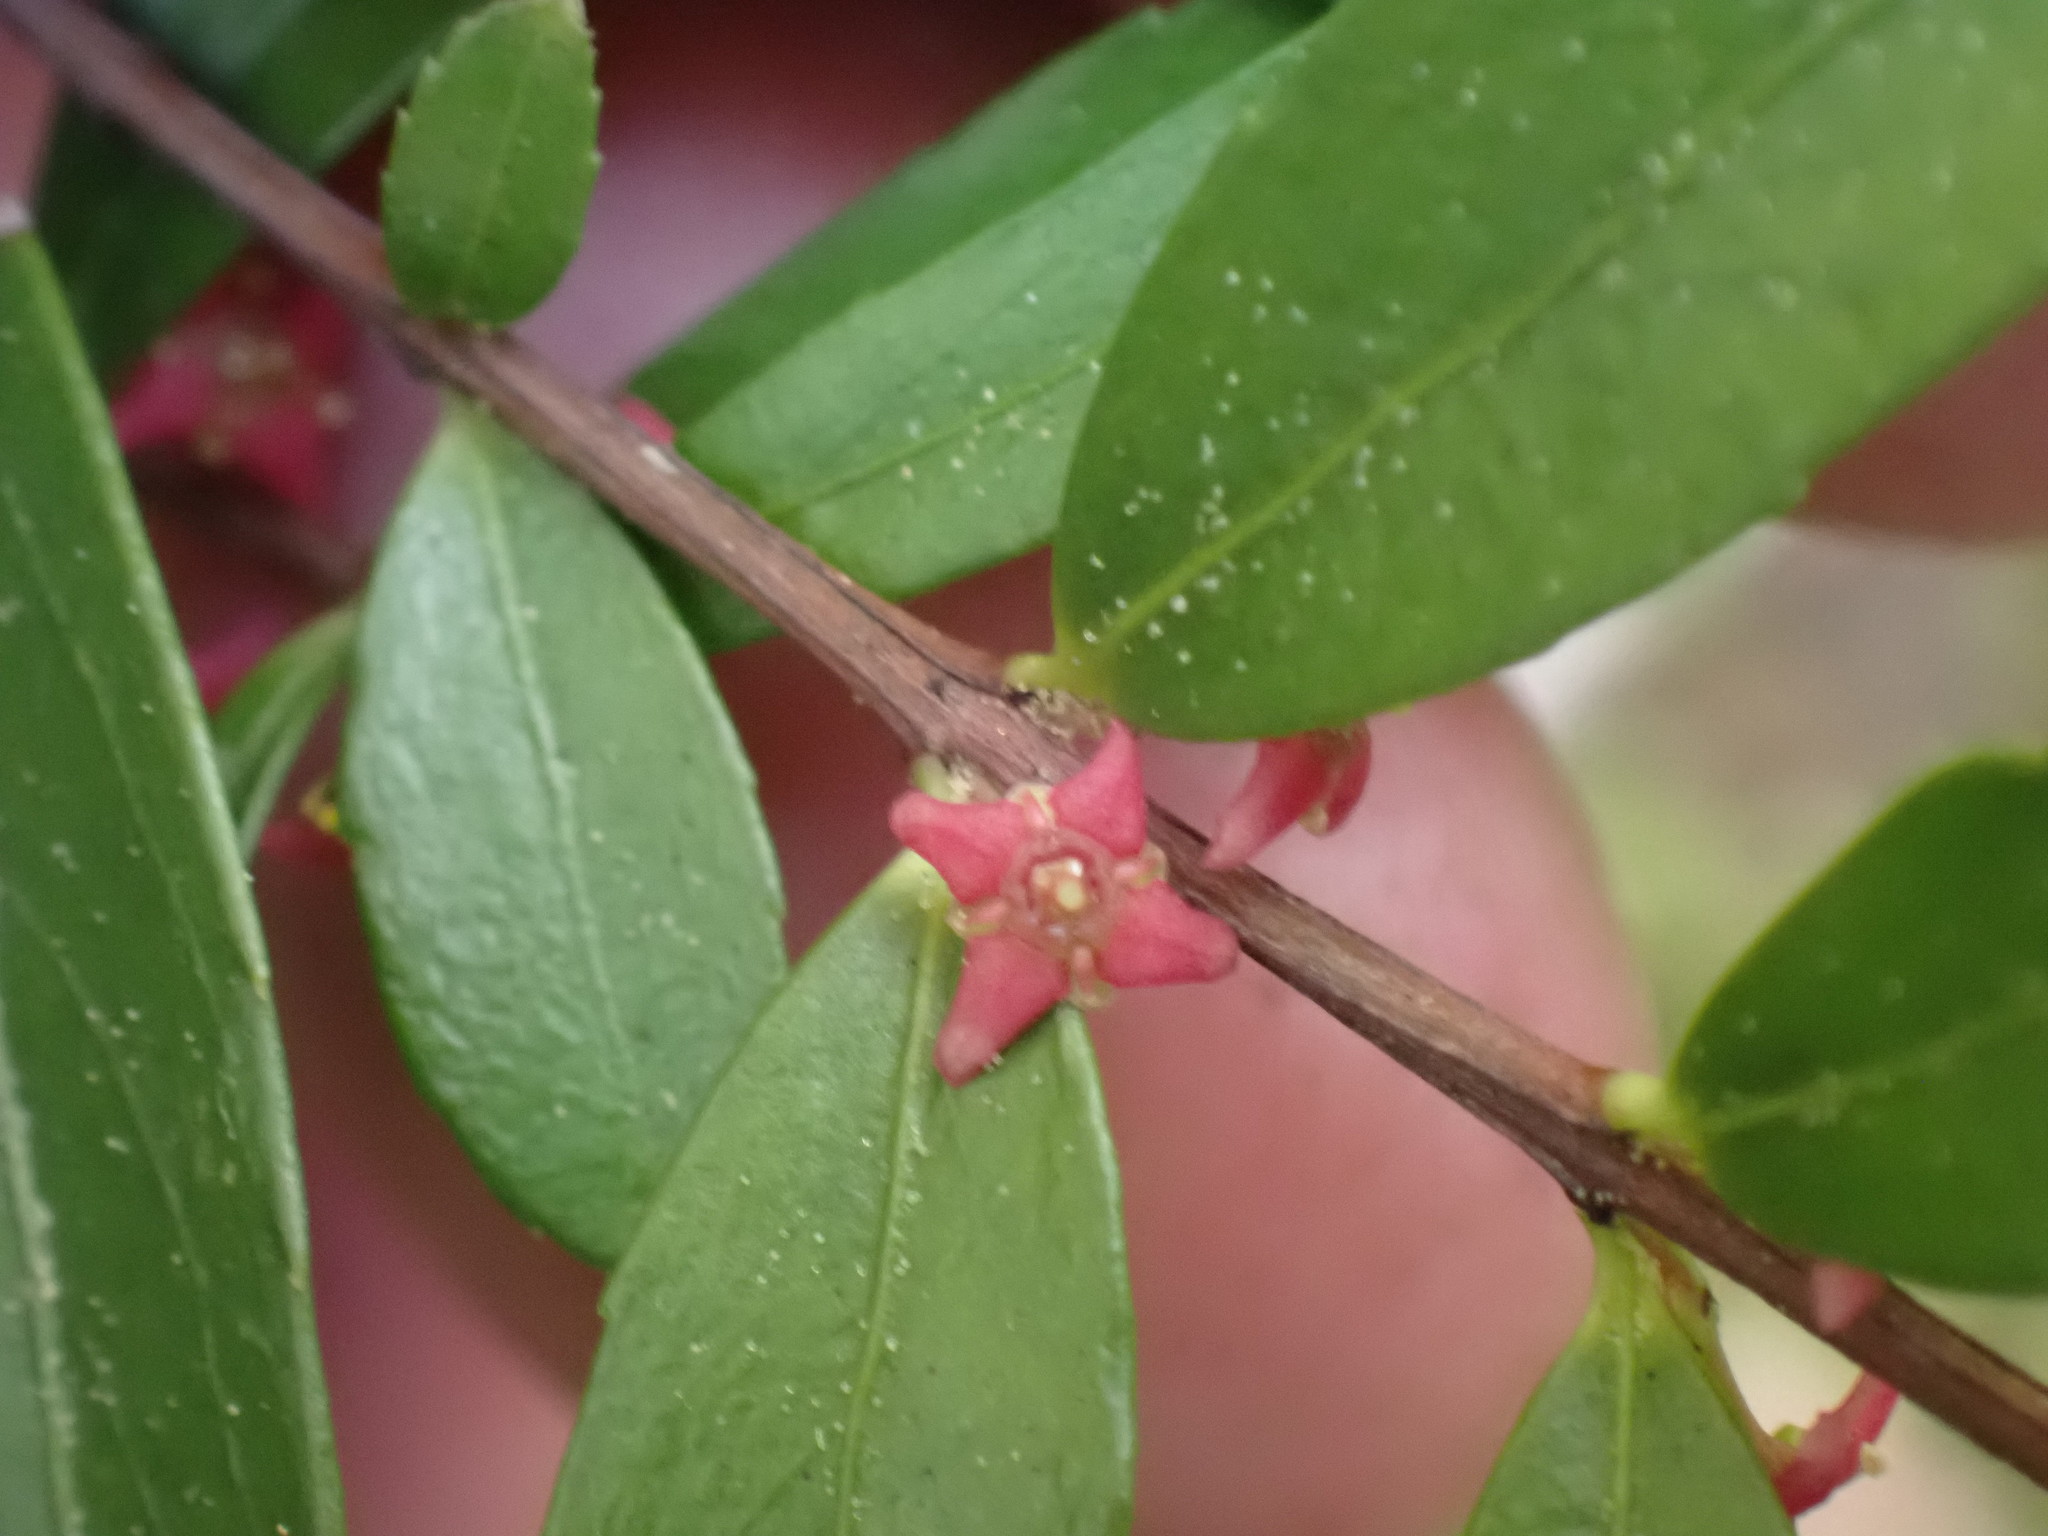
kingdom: Plantae
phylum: Tracheophyta
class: Magnoliopsida
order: Celastrales
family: Celastraceae
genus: Paxistima
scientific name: Paxistima myrsinites
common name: Mountain-lover
